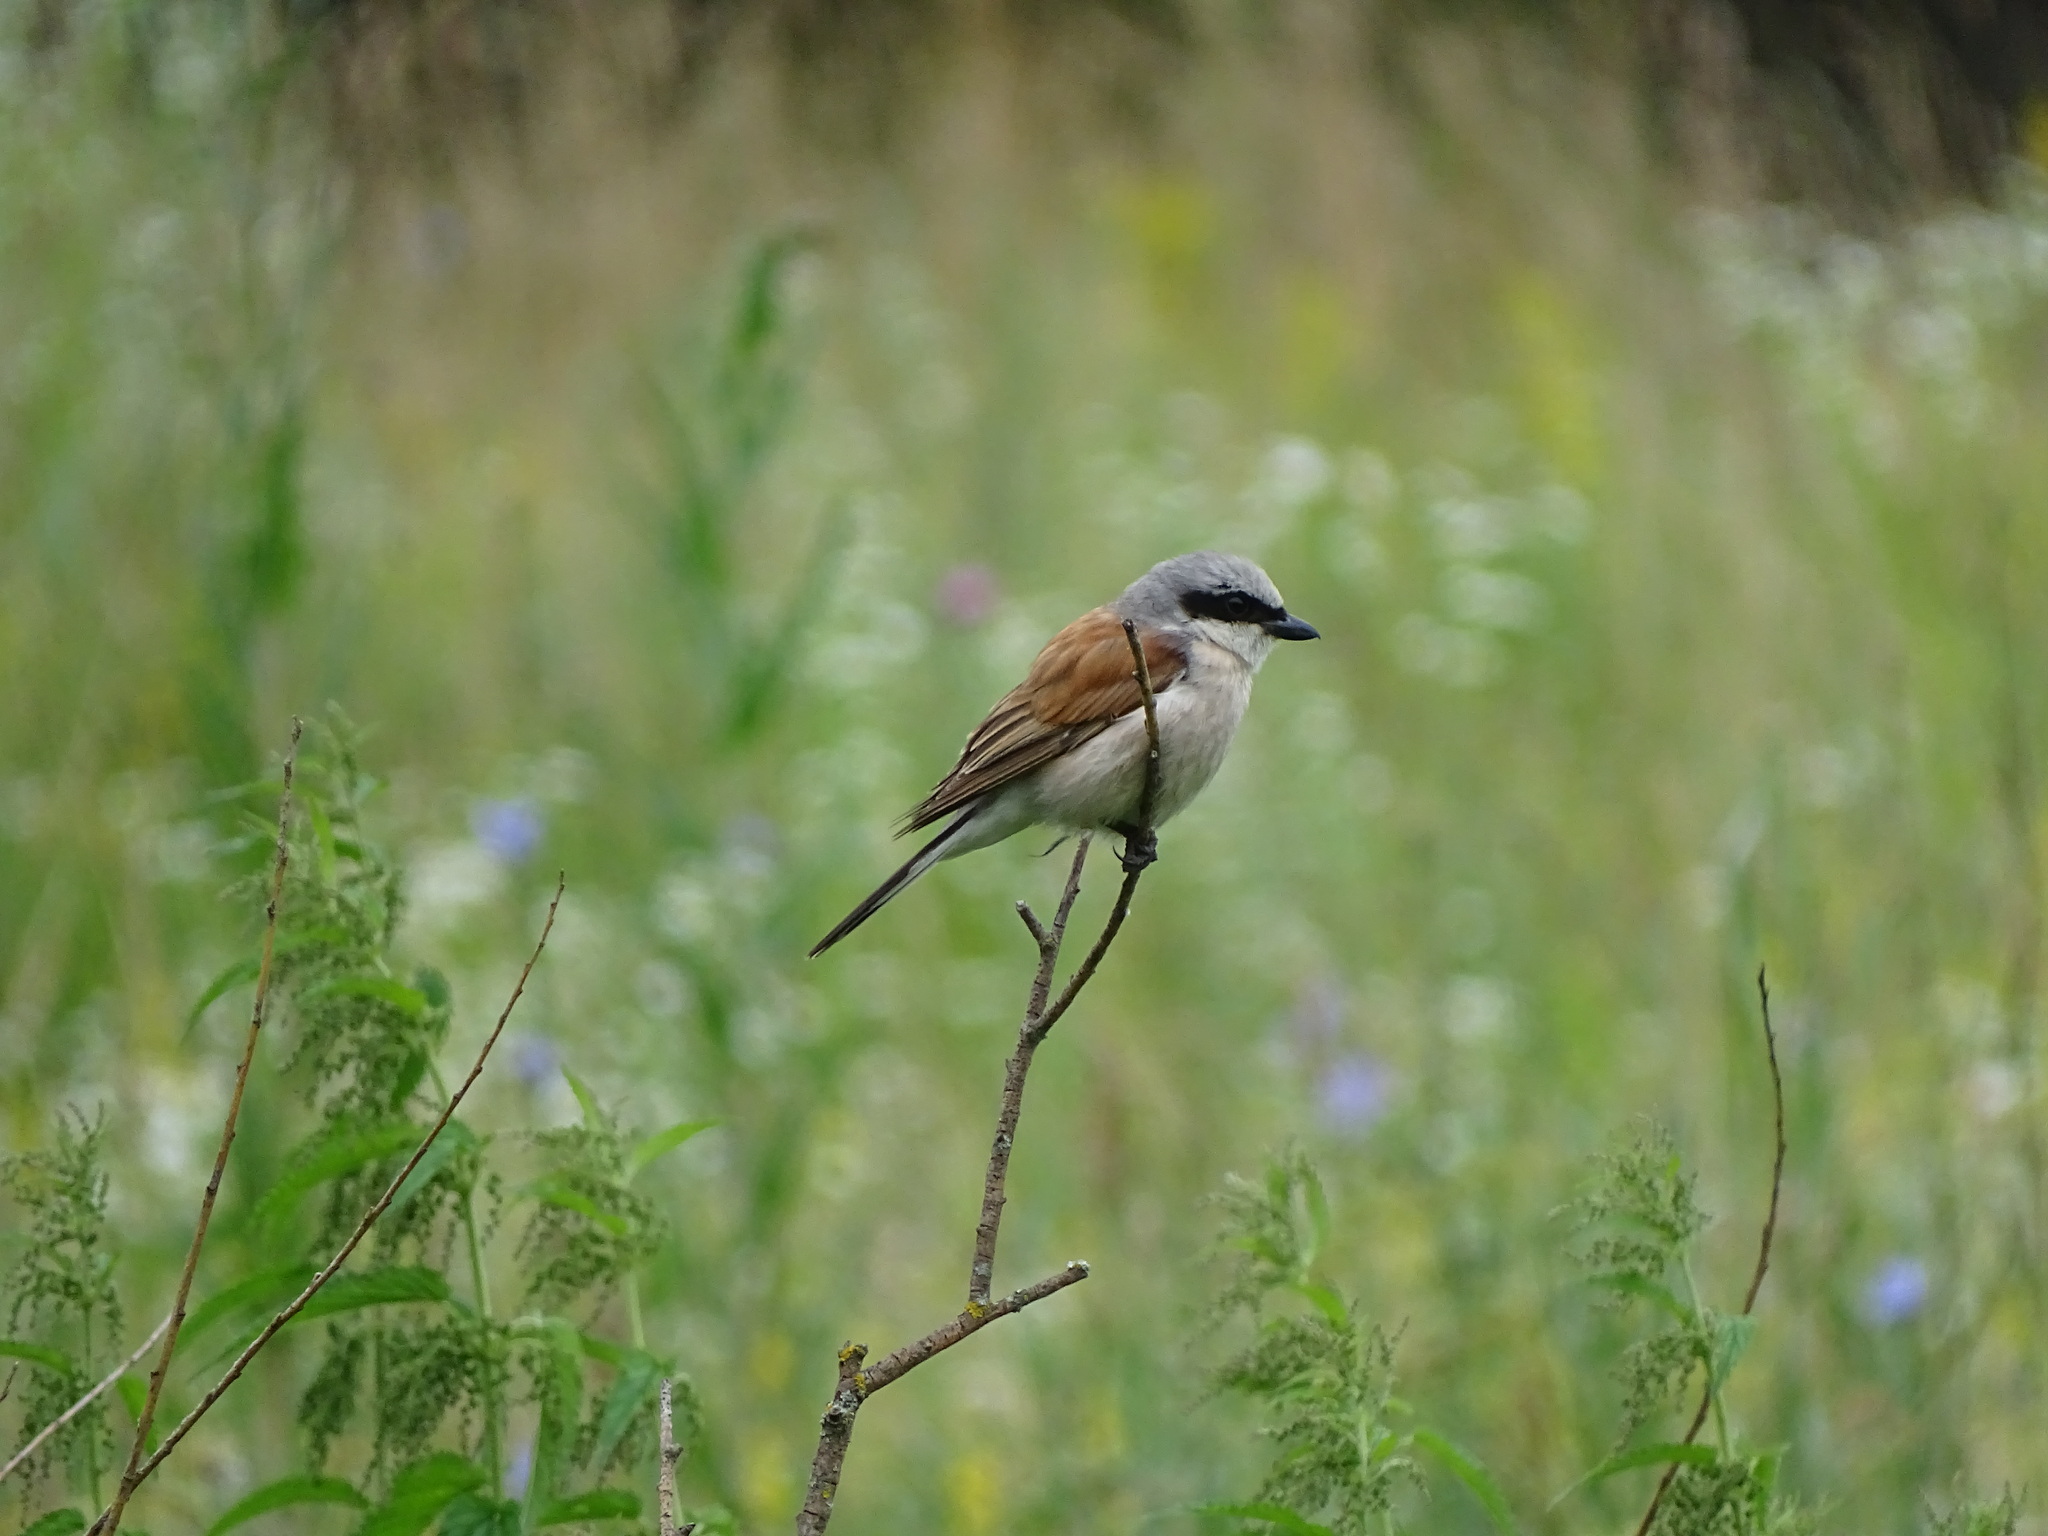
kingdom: Animalia
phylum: Chordata
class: Aves
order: Passeriformes
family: Laniidae
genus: Lanius
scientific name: Lanius collurio
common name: Red-backed shrike
